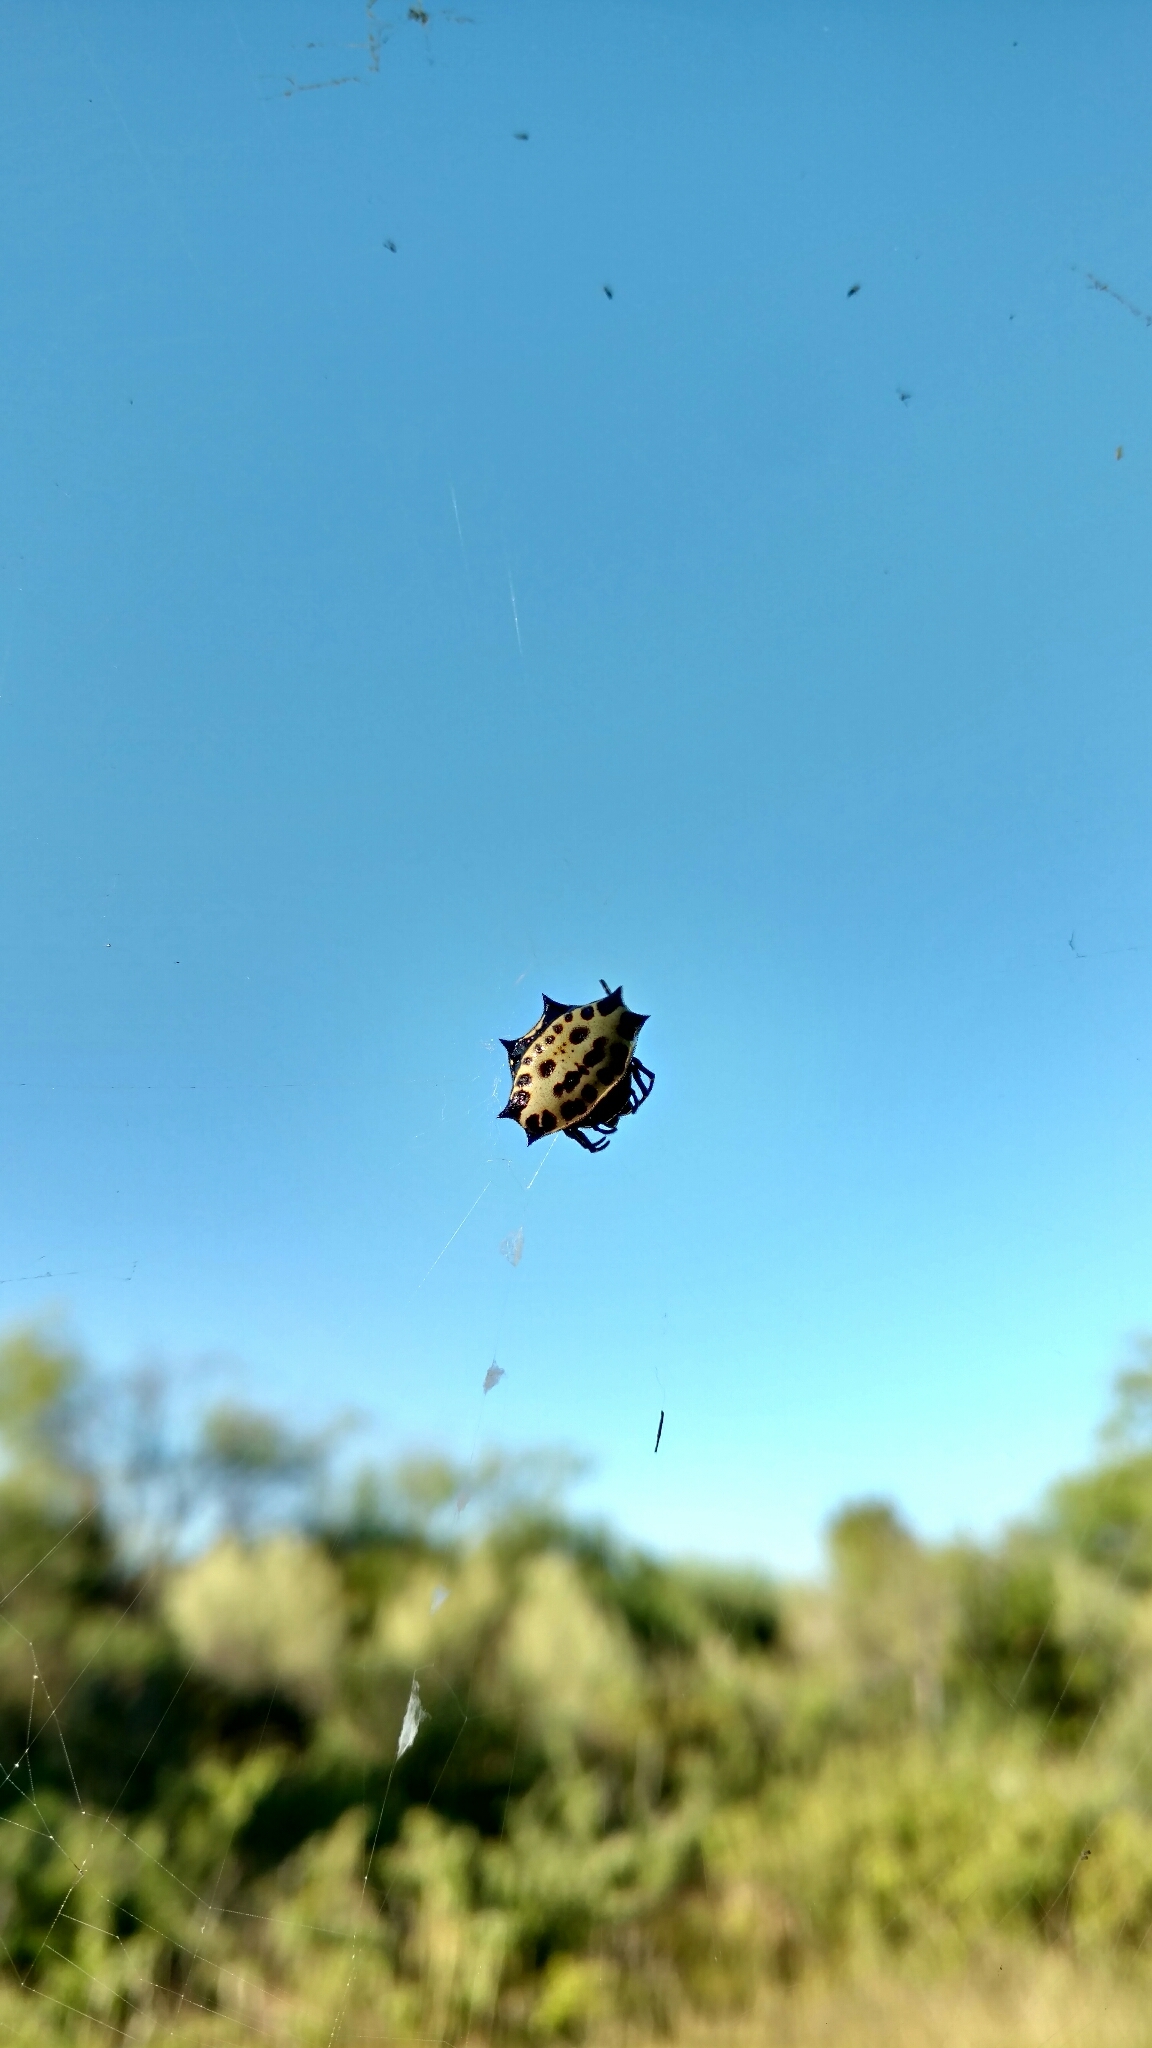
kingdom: Animalia
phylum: Arthropoda
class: Arachnida
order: Araneae
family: Araneidae
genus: Gasteracantha
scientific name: Gasteracantha cancriformis
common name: Orb weavers
